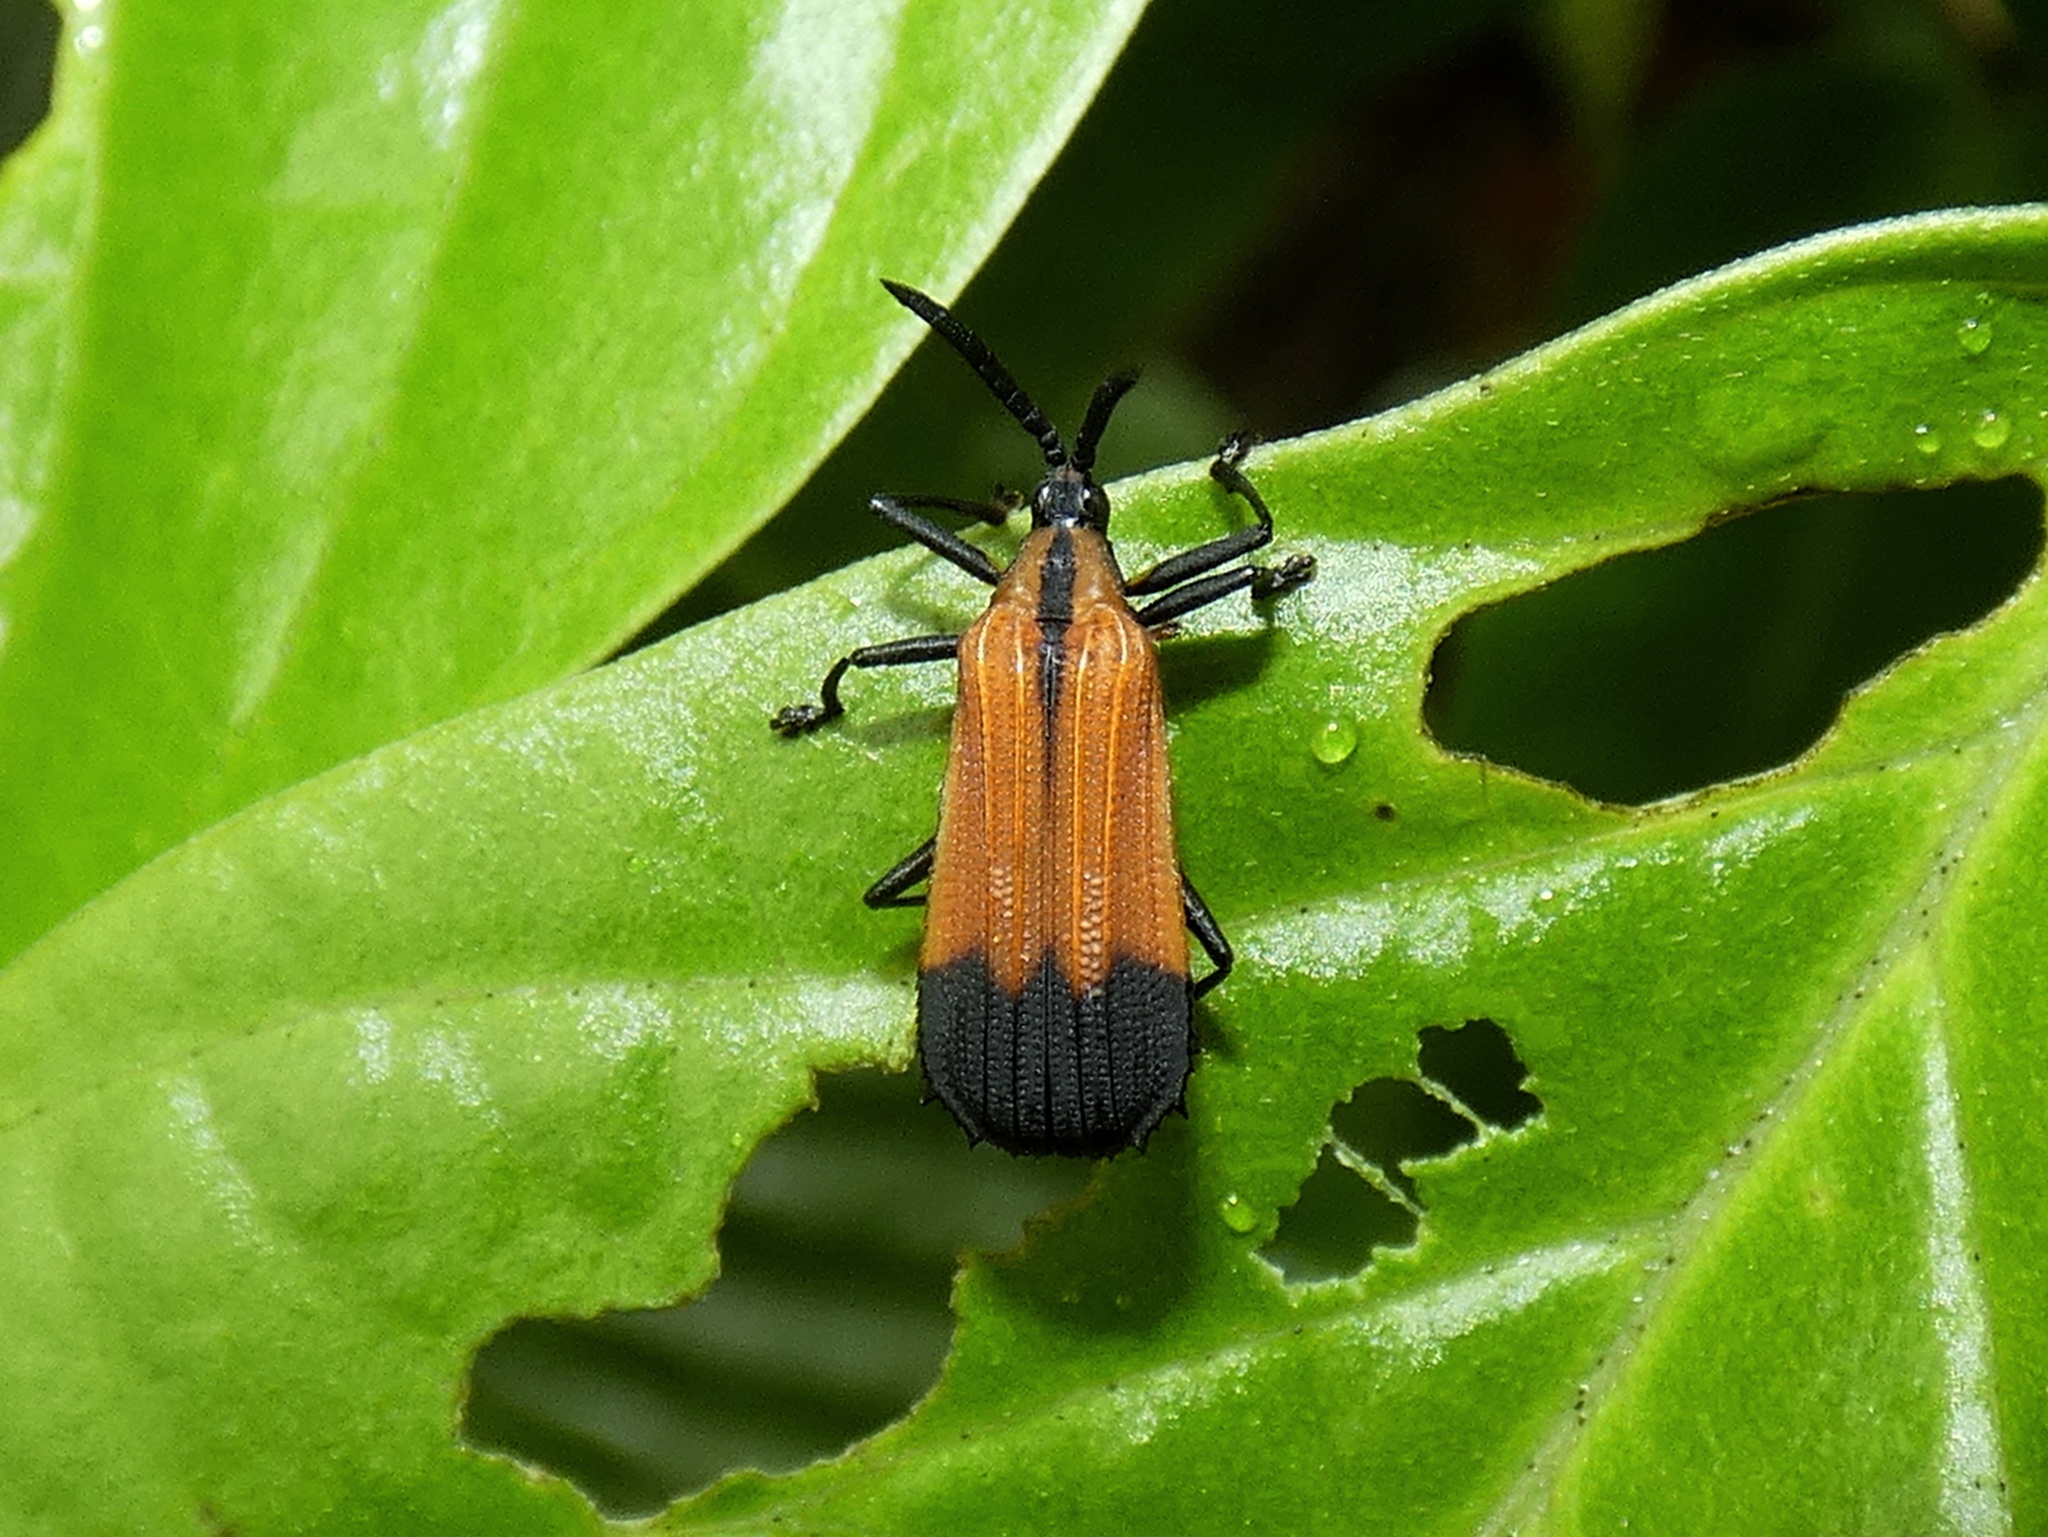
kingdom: Animalia
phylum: Arthropoda
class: Insecta
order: Coleoptera
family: Chrysomelidae
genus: Oxychalepus
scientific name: Oxychalepus posticatus
